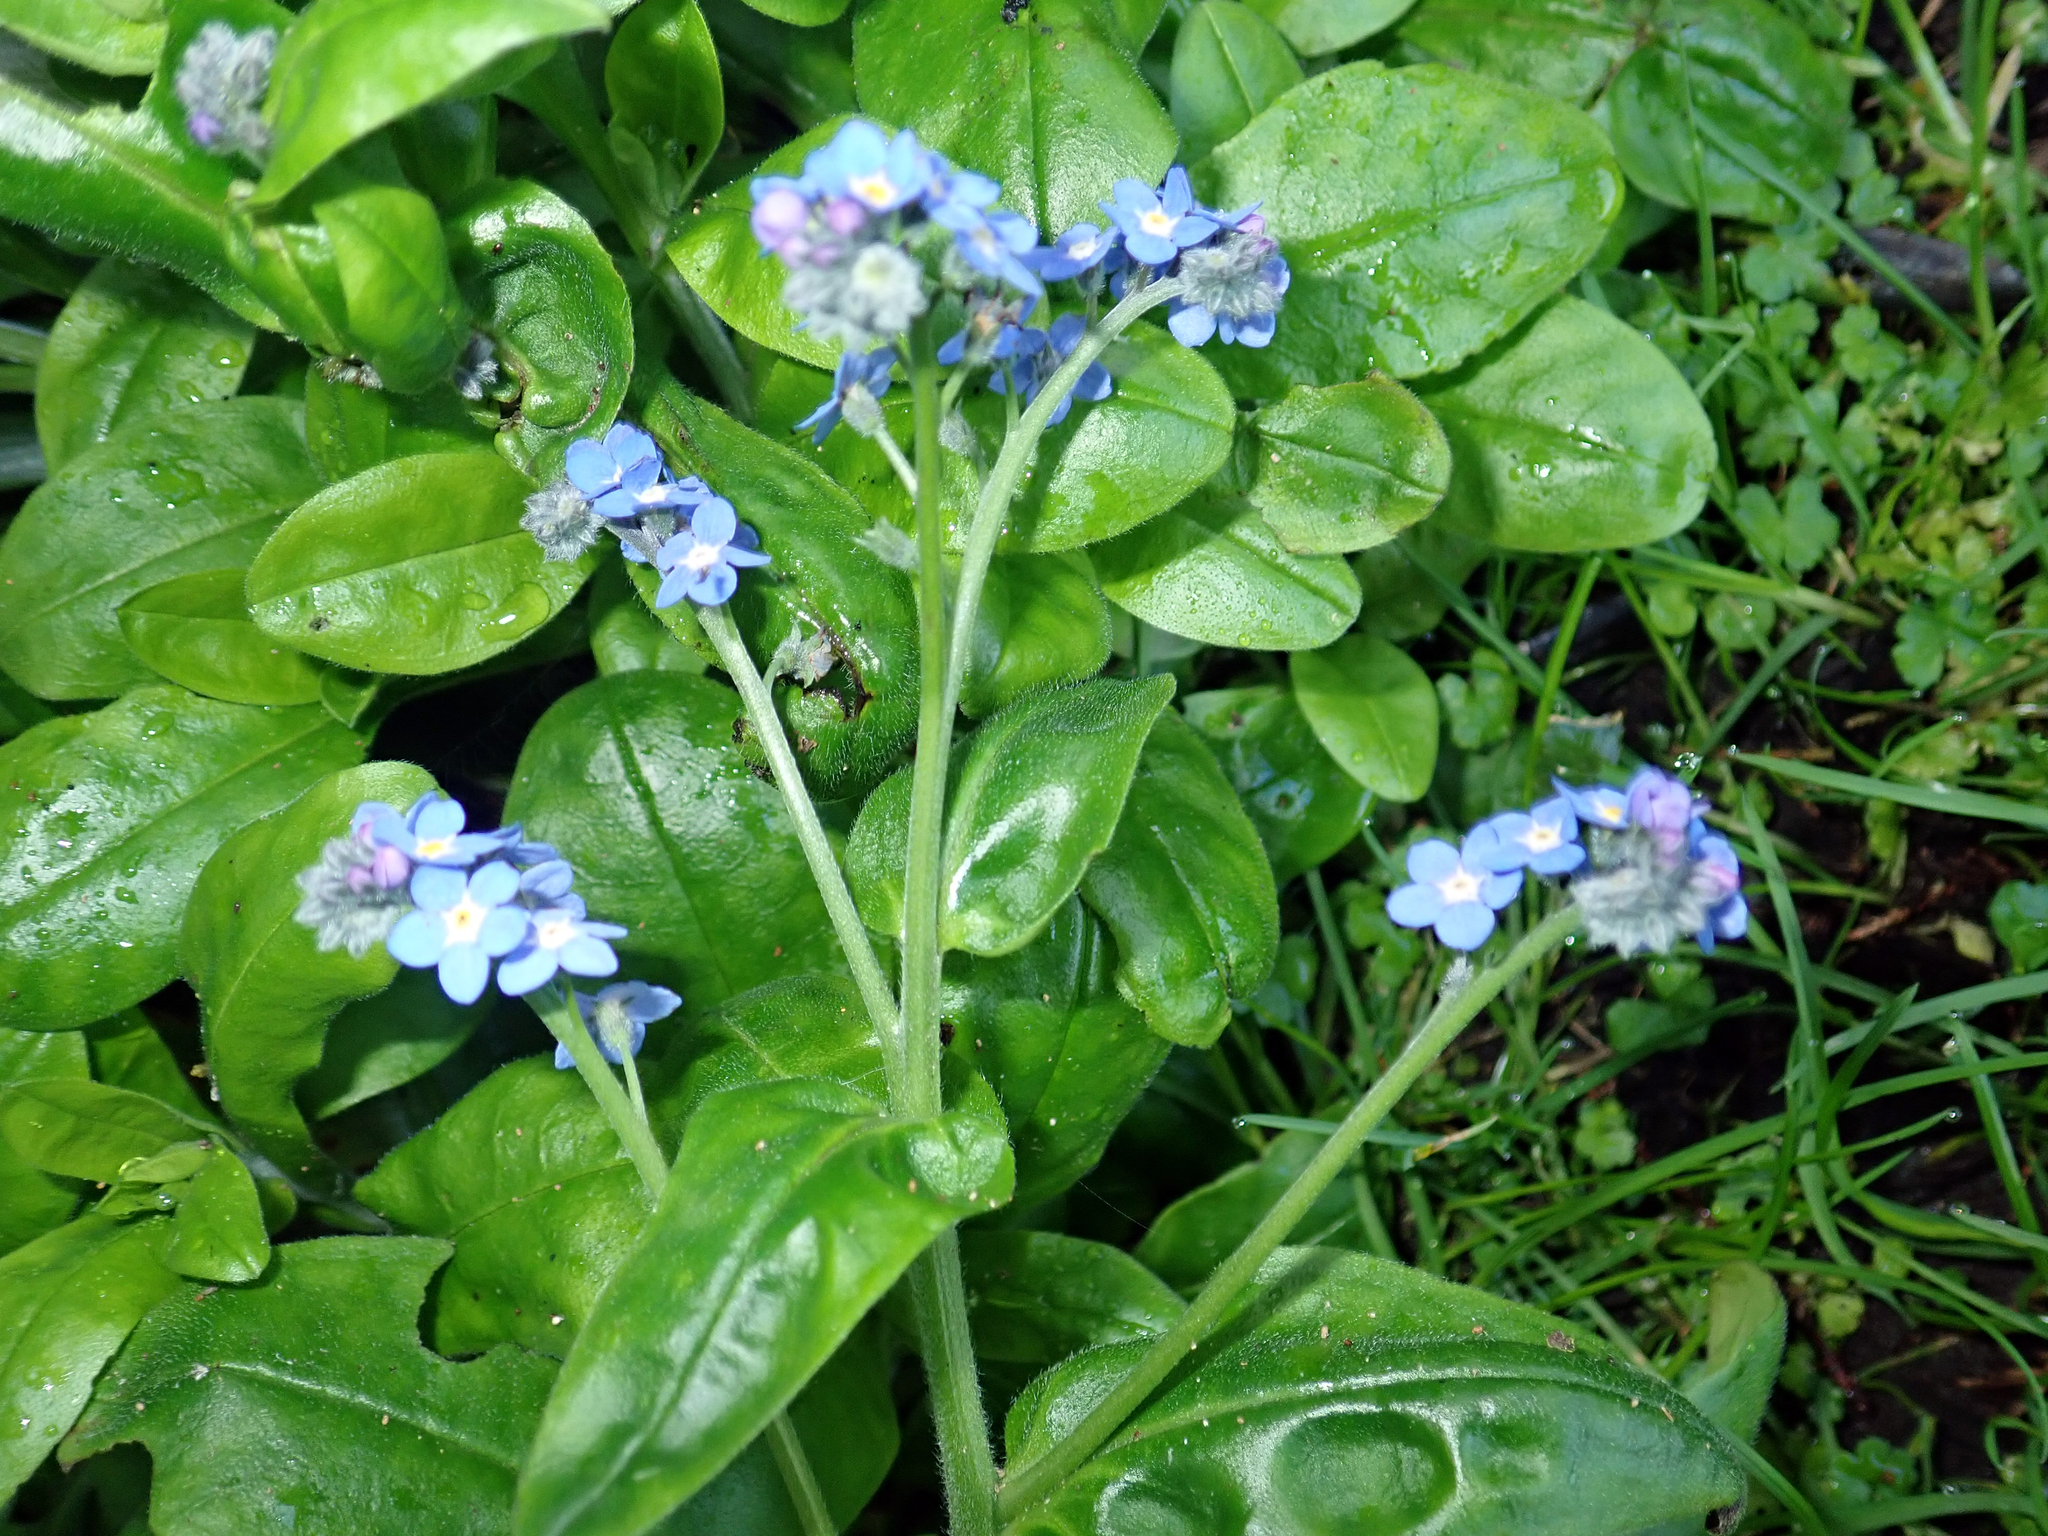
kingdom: Plantae
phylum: Tracheophyta
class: Magnoliopsida
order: Boraginales
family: Boraginaceae
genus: Myosotis
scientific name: Myosotis sylvatica
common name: Wood forget-me-not
